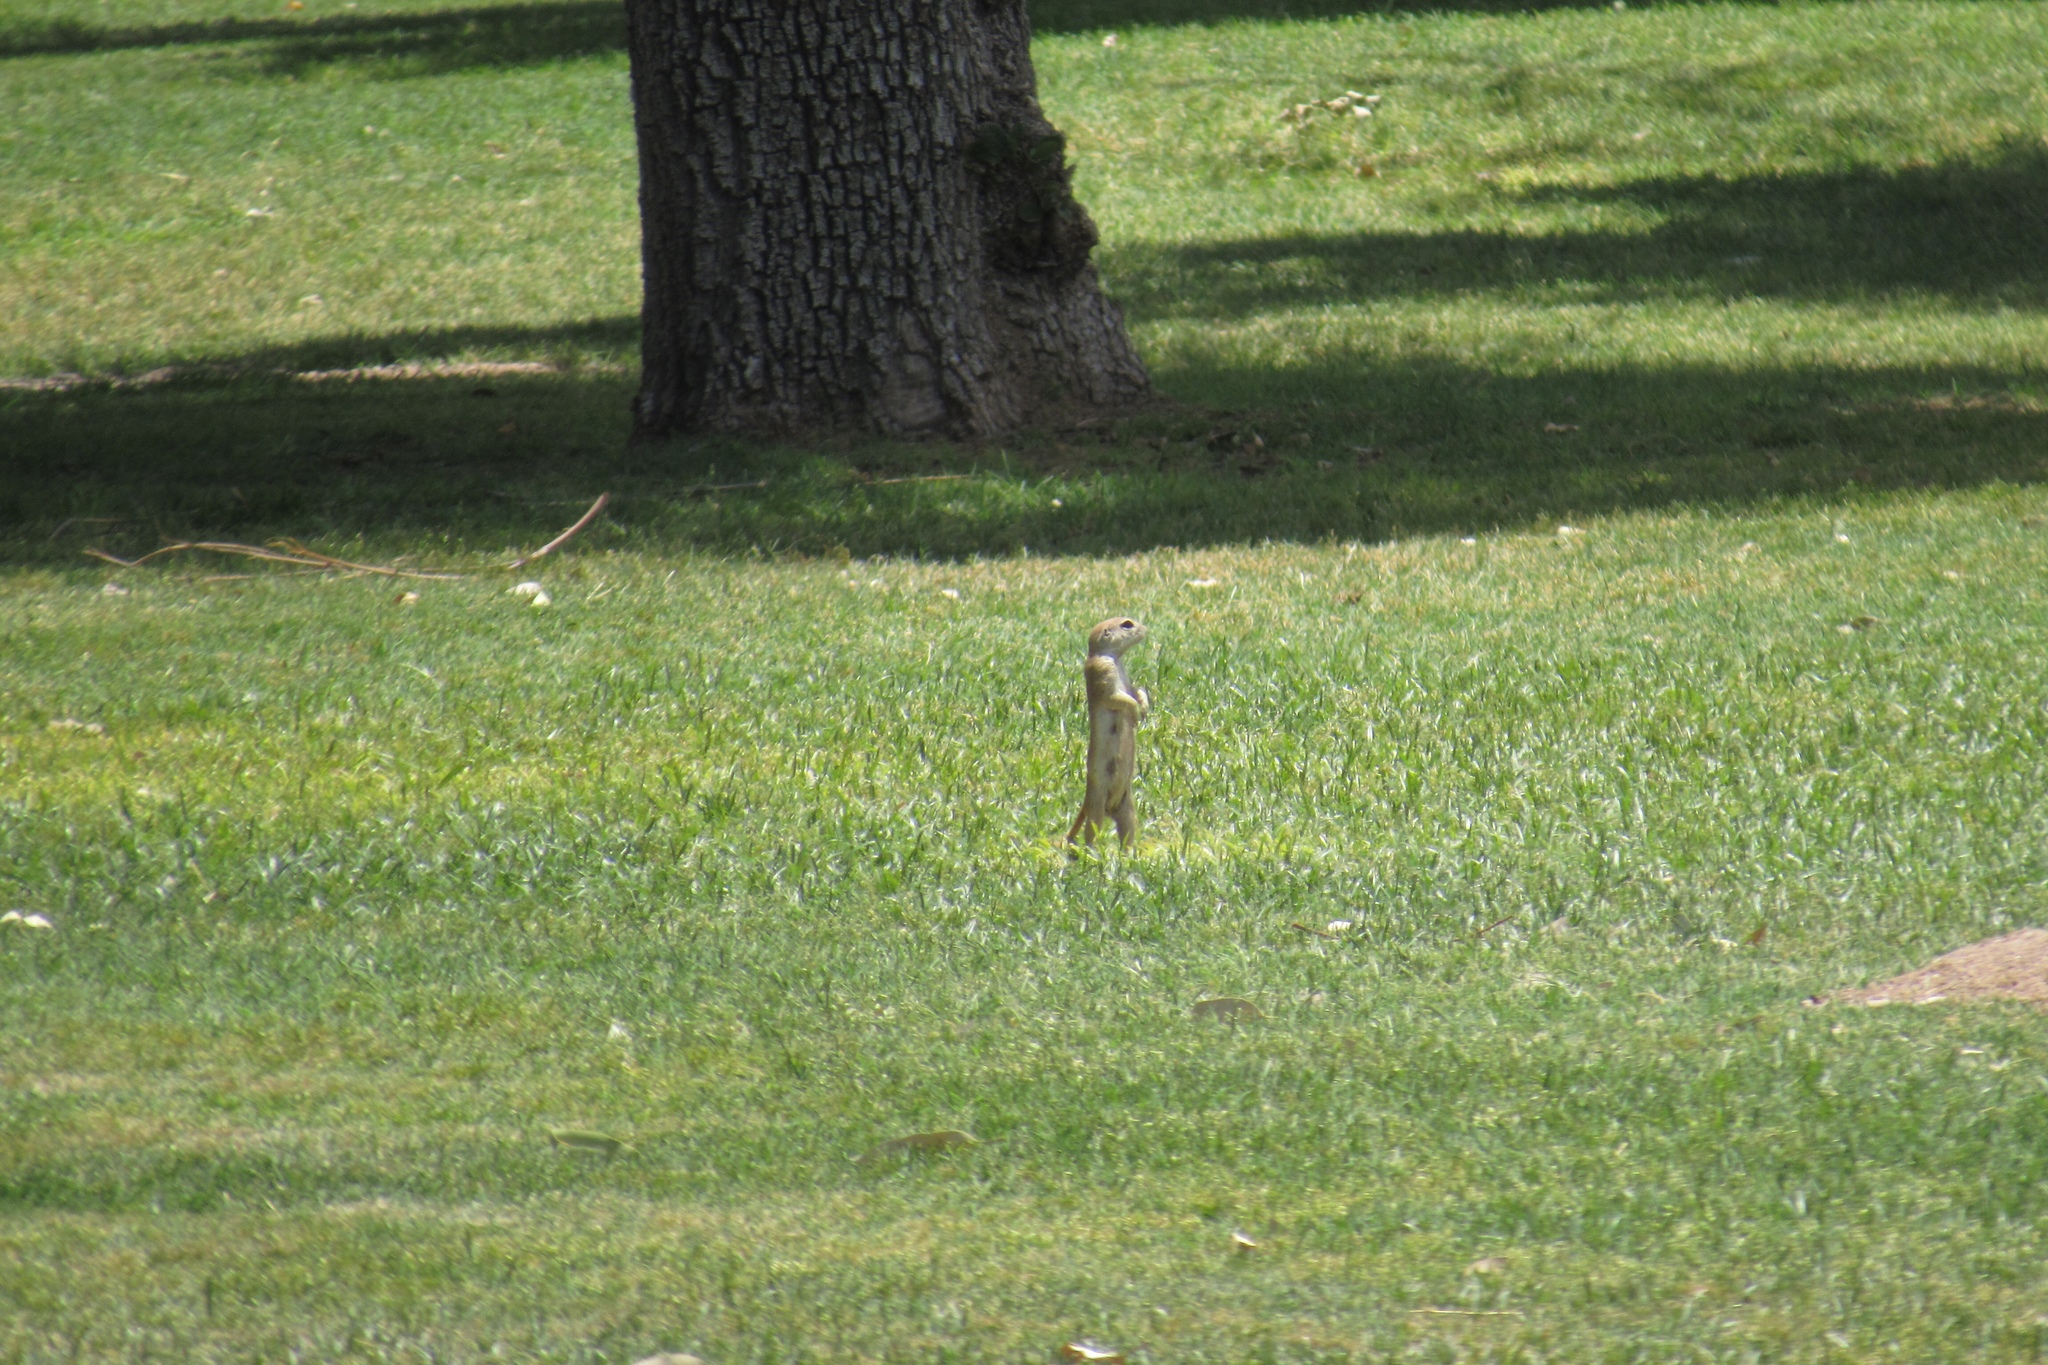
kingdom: Animalia
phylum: Chordata
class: Mammalia
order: Rodentia
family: Sciuridae
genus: Xerospermophilus
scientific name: Xerospermophilus tereticaudus
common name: Round-tailed ground squirrel
